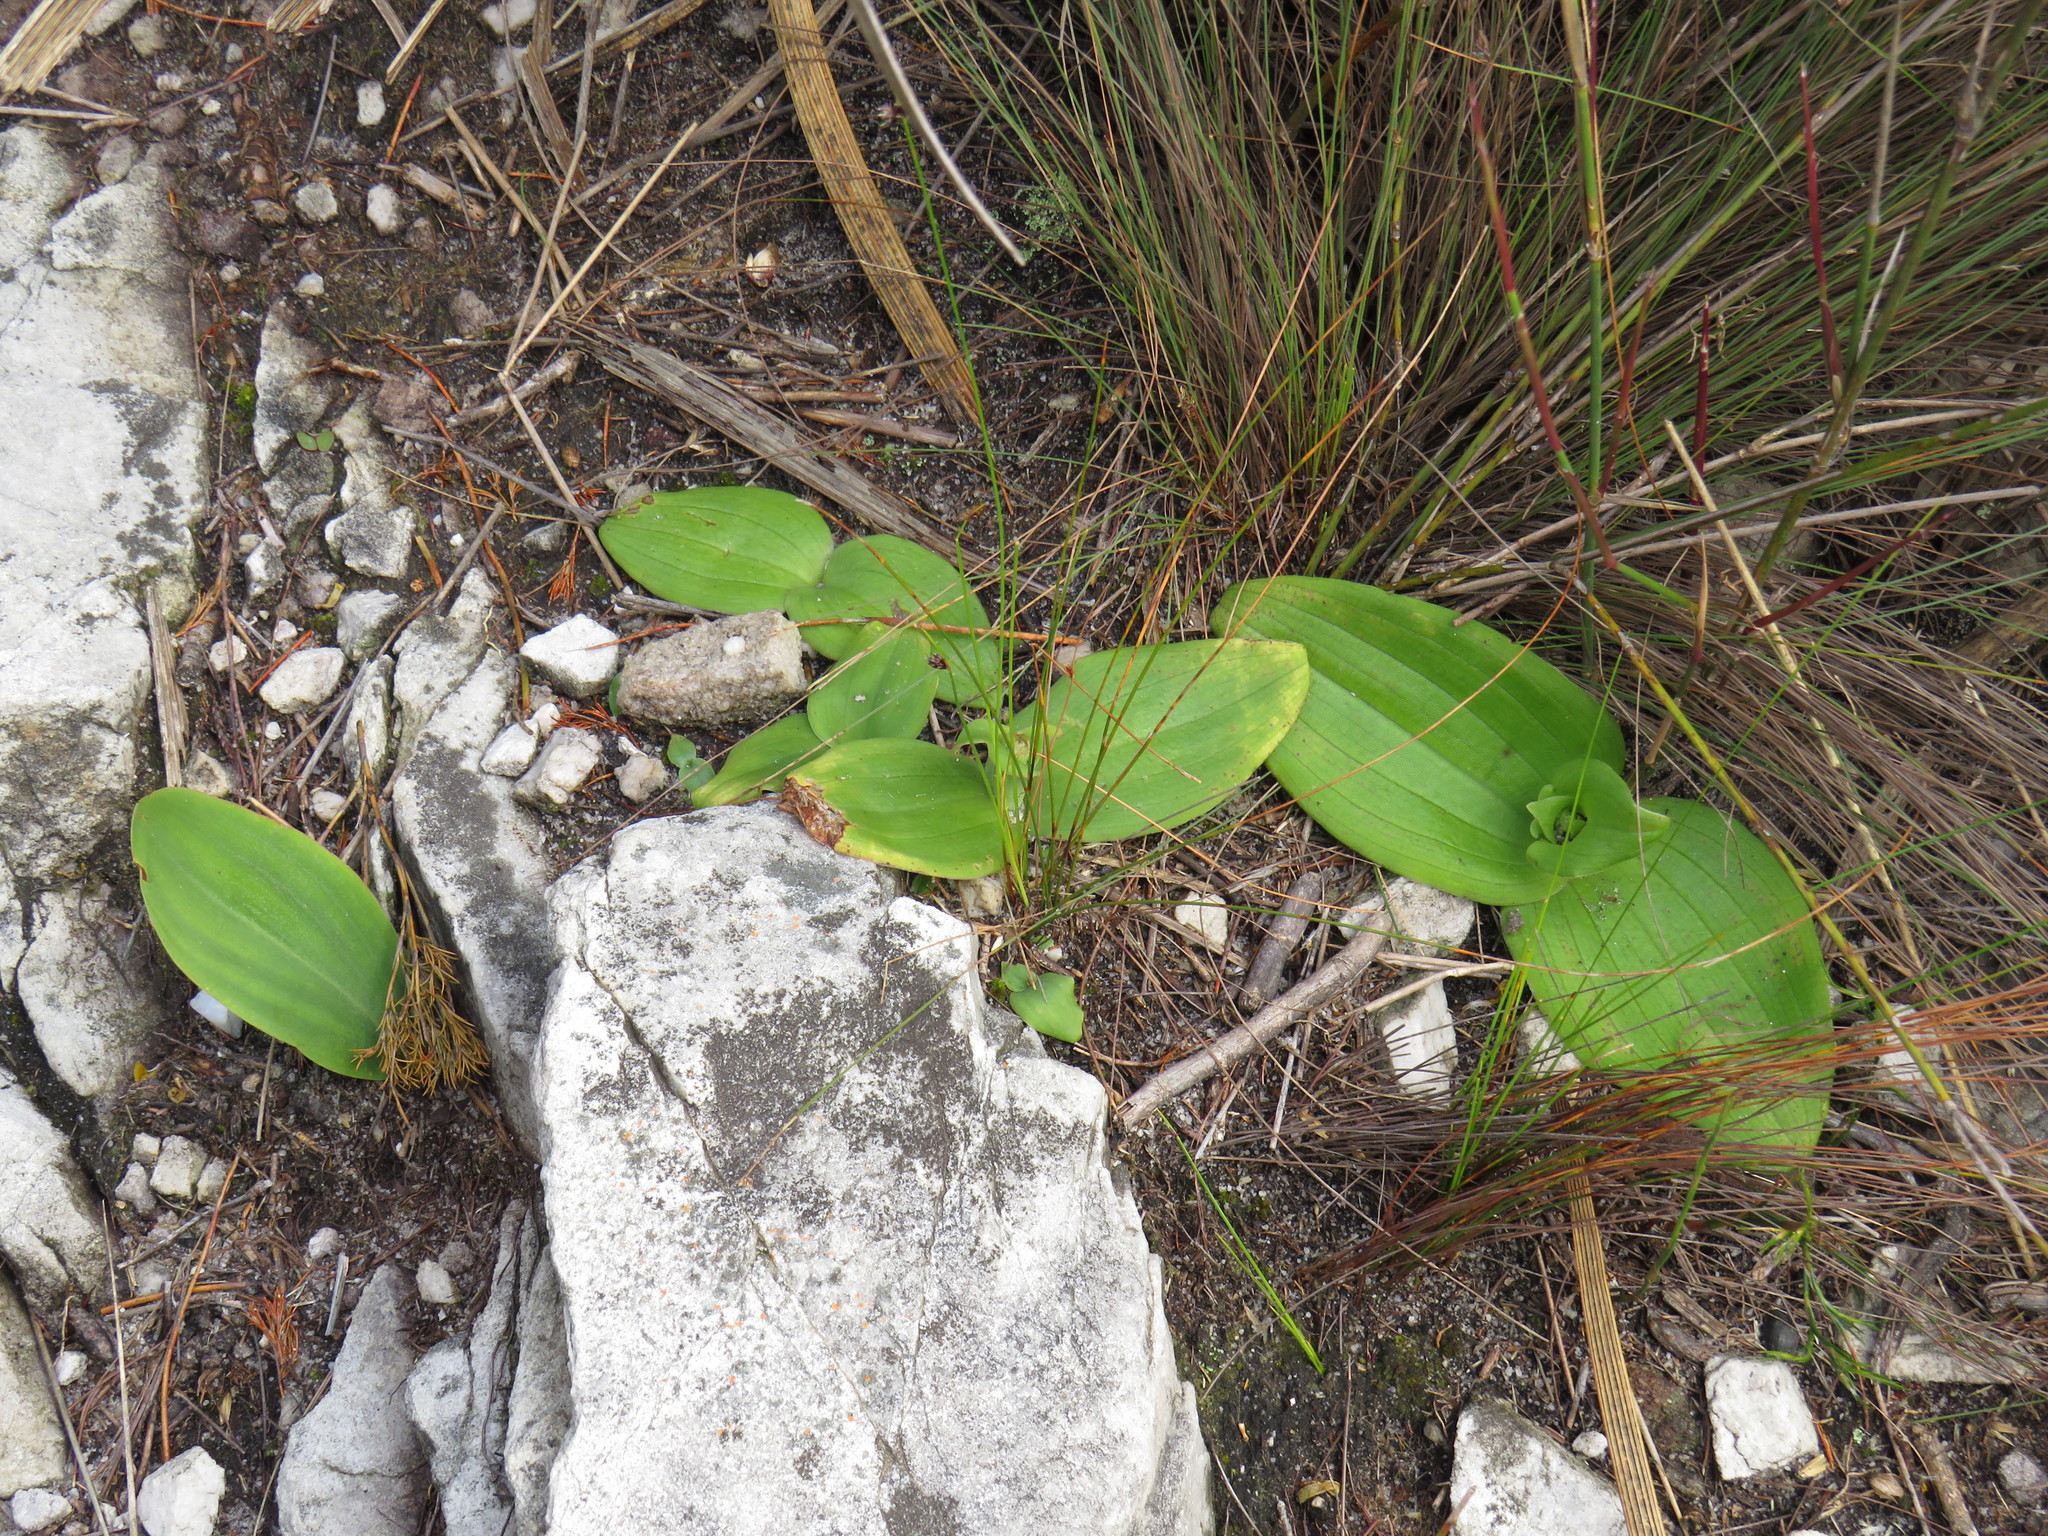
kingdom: Plantae
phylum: Tracheophyta
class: Liliopsida
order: Asparagales
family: Orchidaceae
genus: Satyrium
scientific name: Satyrium humile
